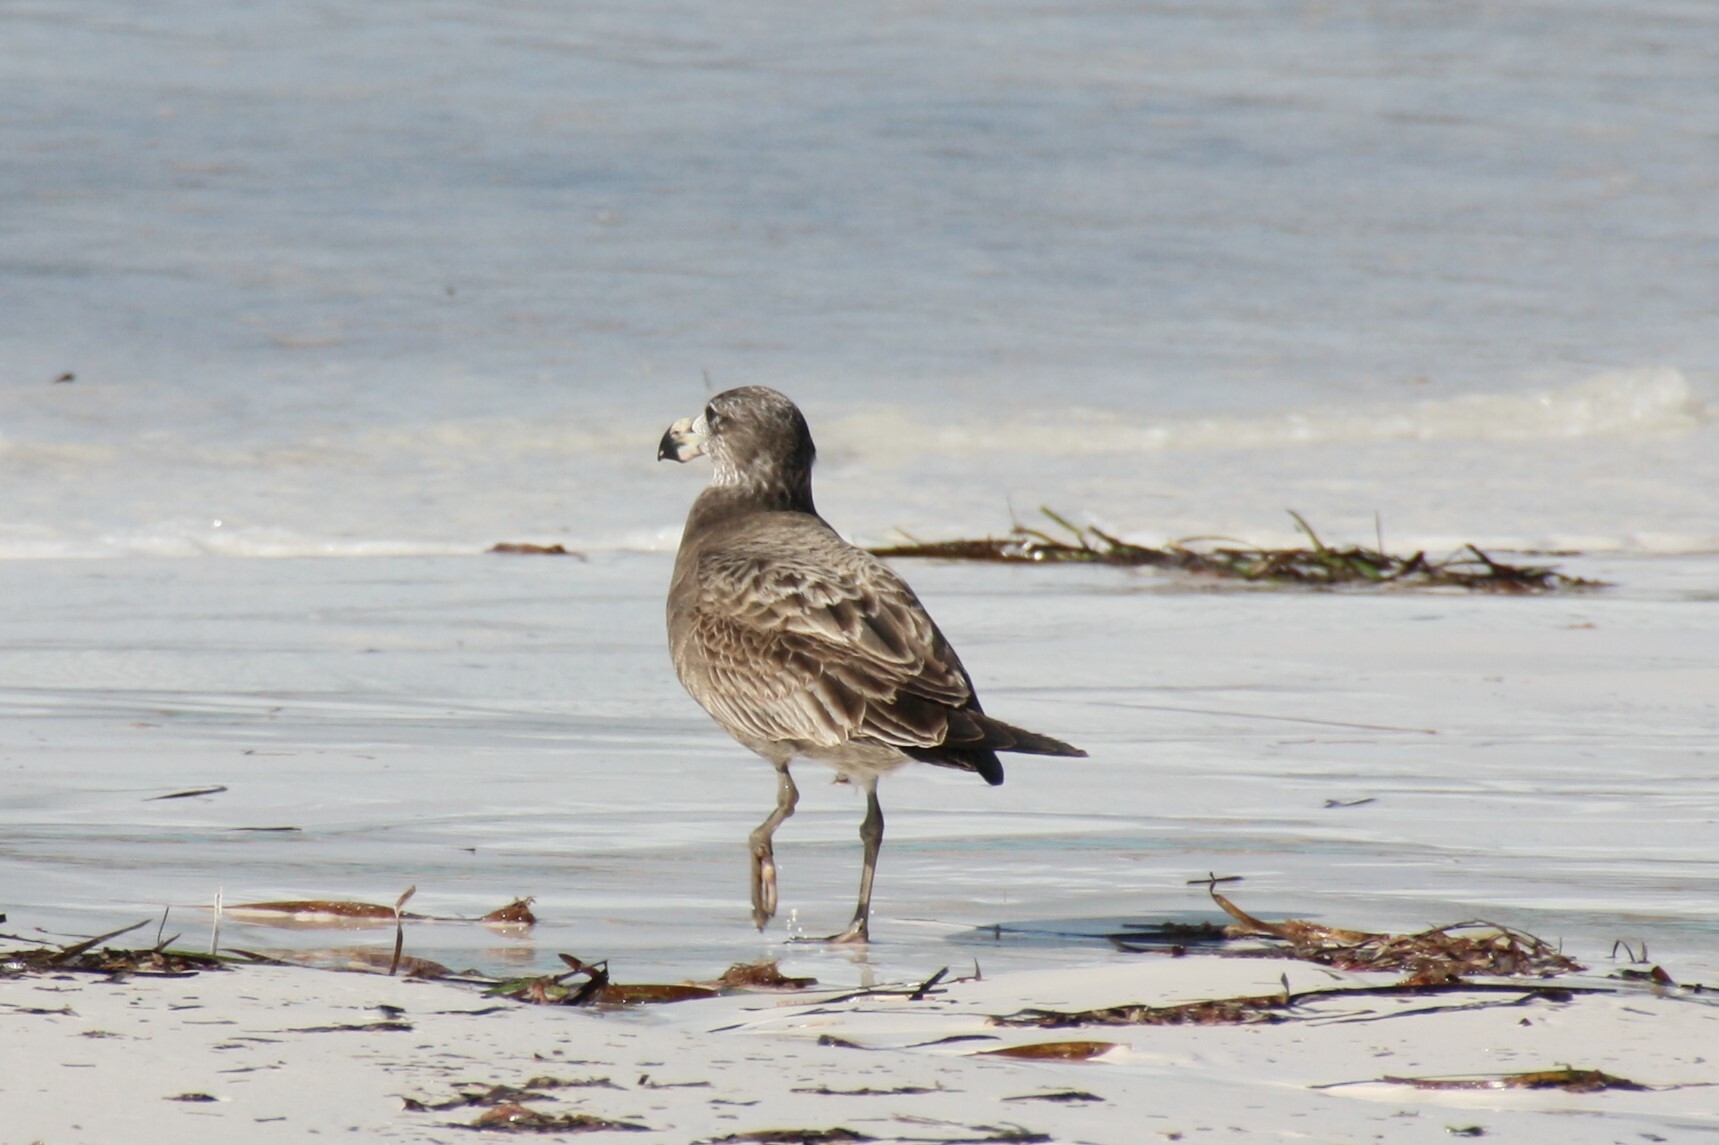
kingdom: Animalia
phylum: Chordata
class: Aves
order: Charadriiformes
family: Laridae
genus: Larus
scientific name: Larus pacificus
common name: Pacific gull
